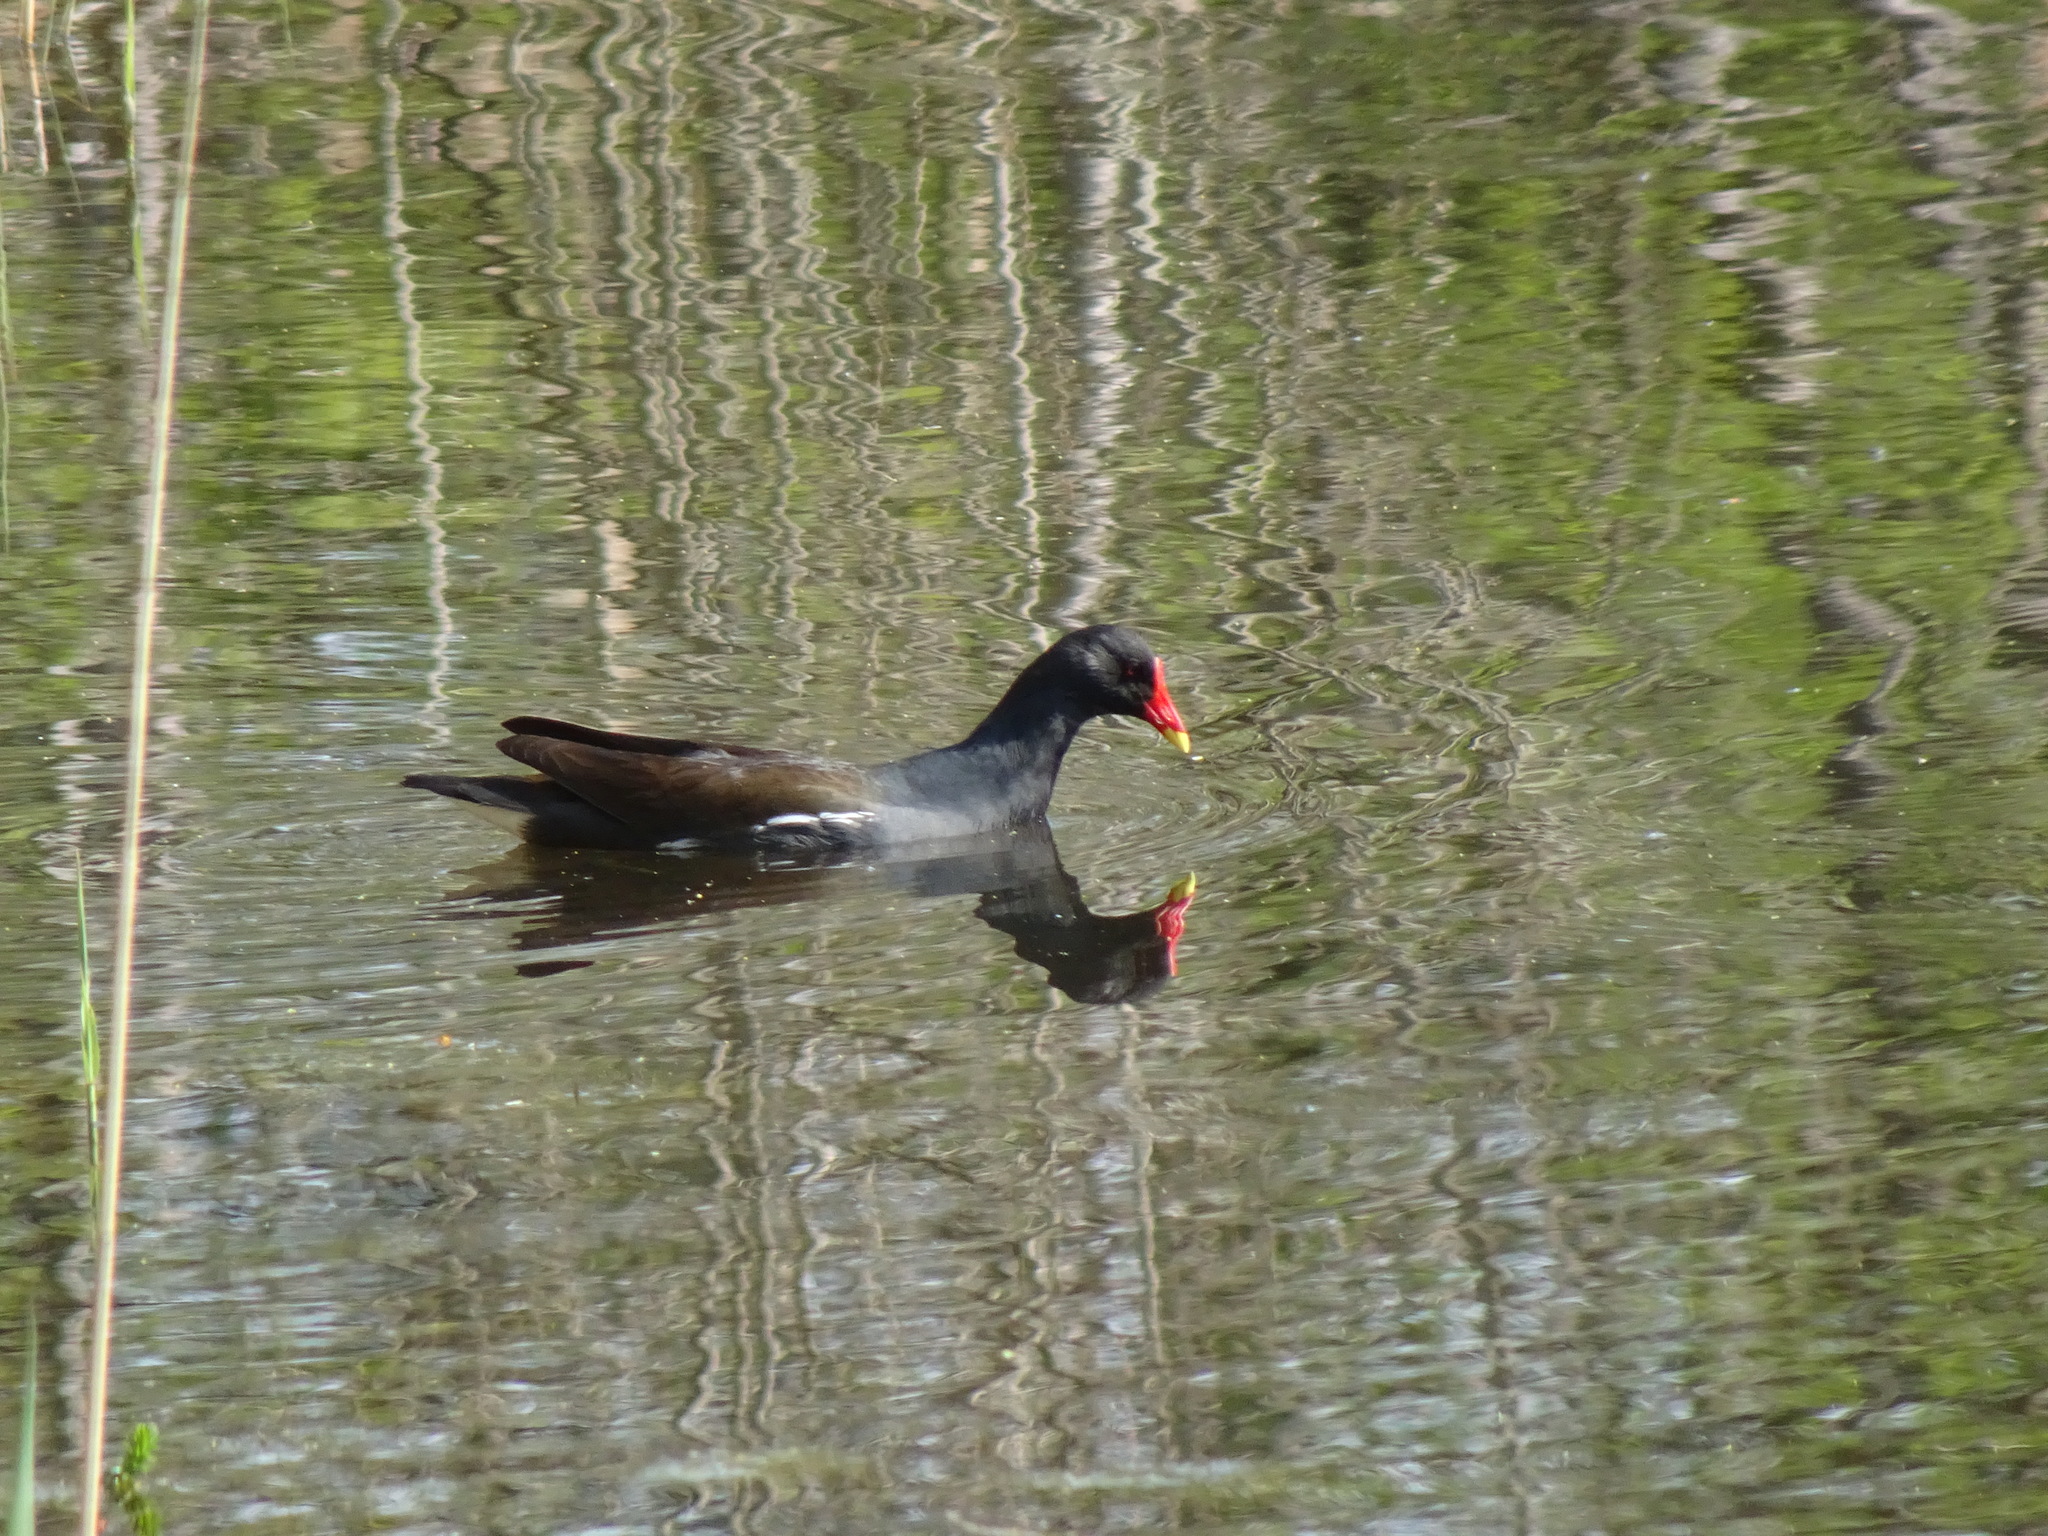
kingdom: Animalia
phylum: Chordata
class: Aves
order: Gruiformes
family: Rallidae
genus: Gallinula
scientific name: Gallinula chloropus
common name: Common moorhen
